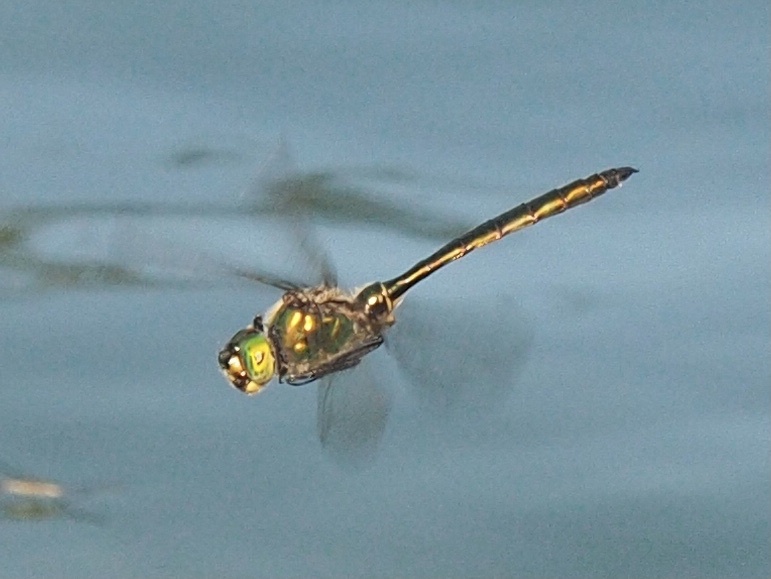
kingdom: Animalia
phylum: Arthropoda
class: Insecta
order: Odonata
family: Corduliidae
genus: Somatochlora
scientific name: Somatochlora metallica
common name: Brilliant emerald
